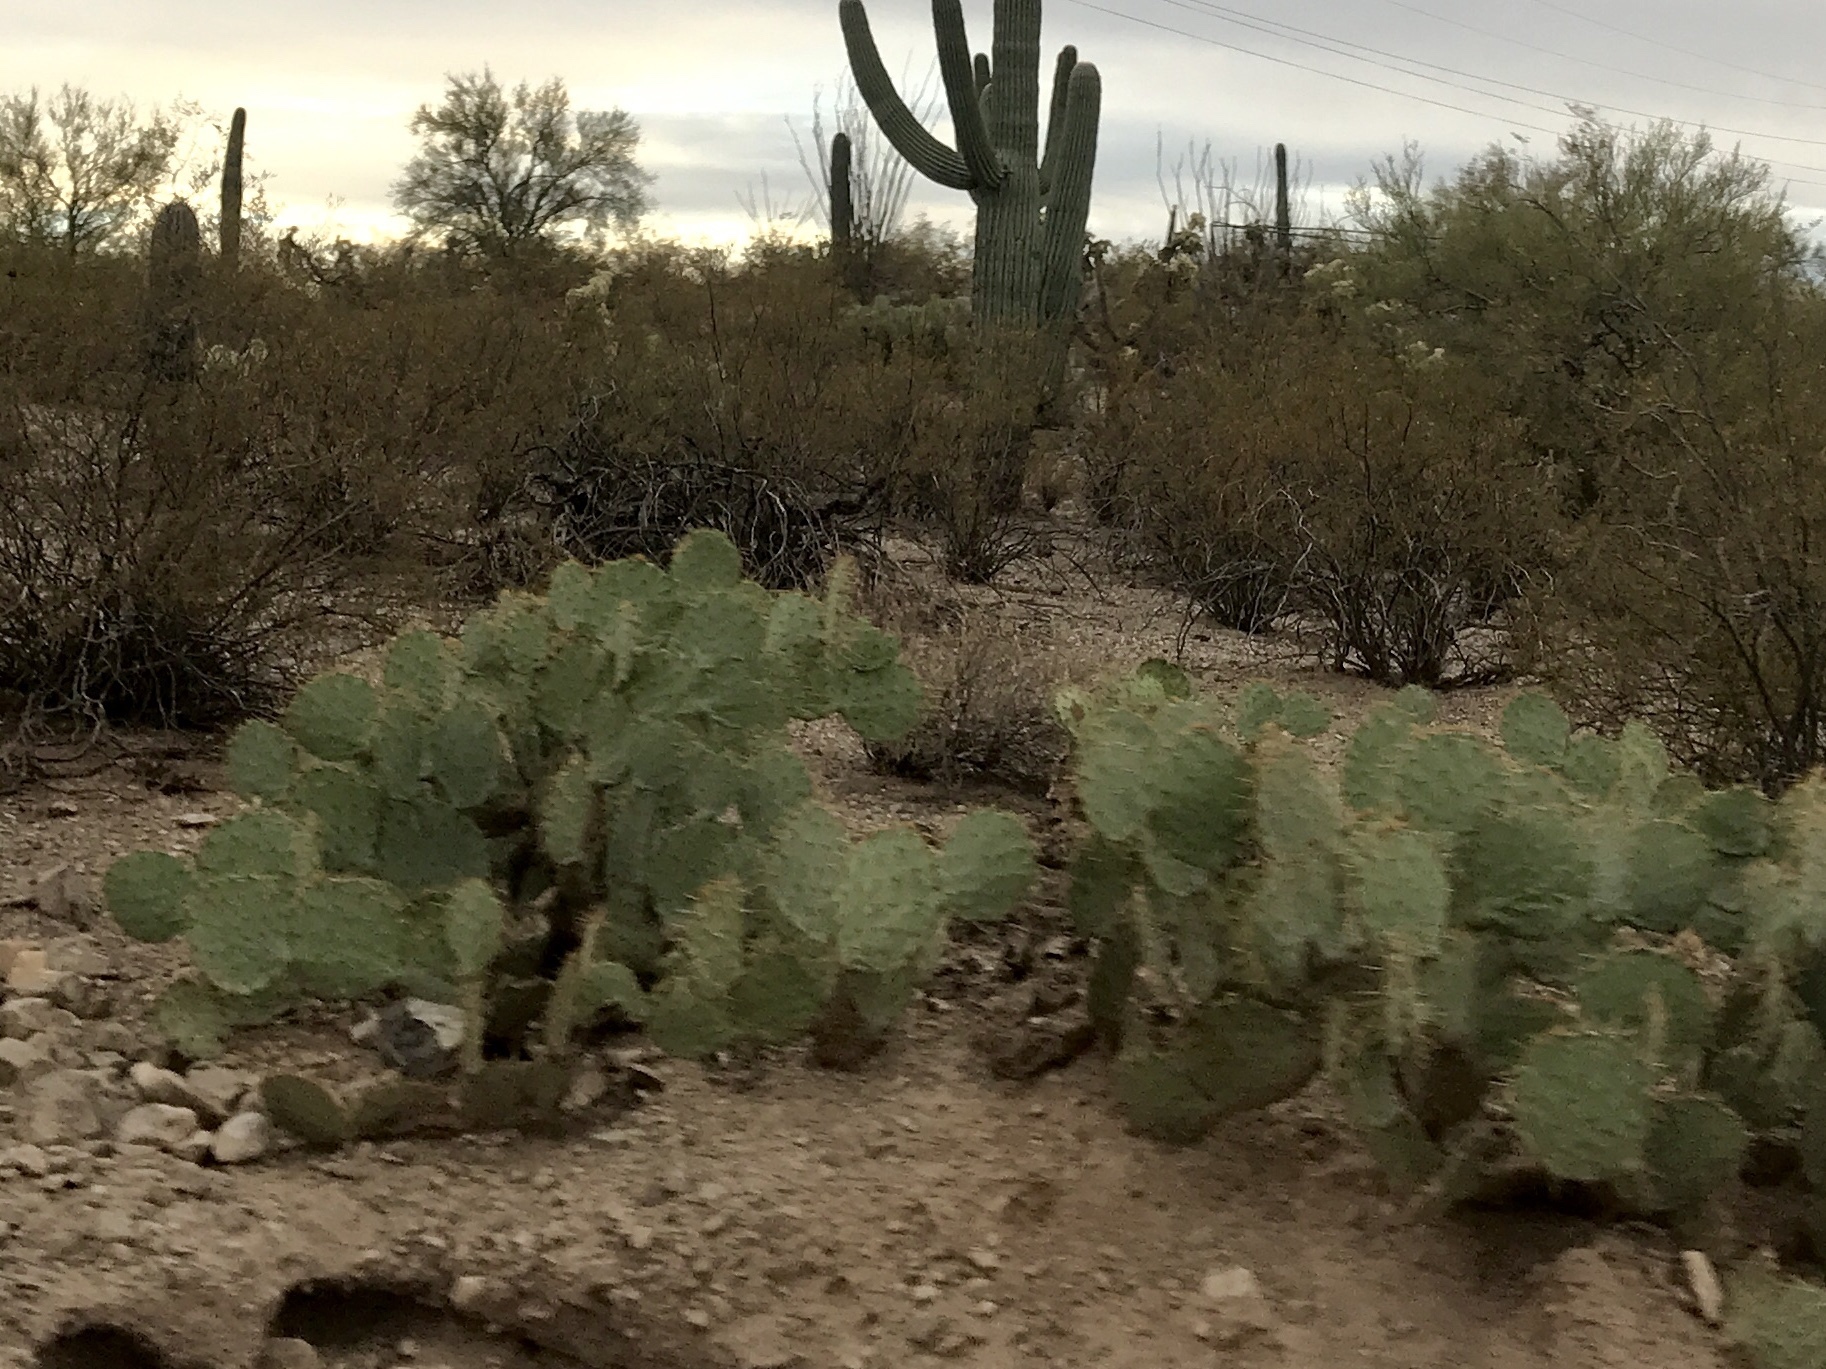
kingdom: Plantae
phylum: Tracheophyta
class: Magnoliopsida
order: Caryophyllales
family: Cactaceae
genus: Opuntia
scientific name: Opuntia engelmannii
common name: Cactus-apple
